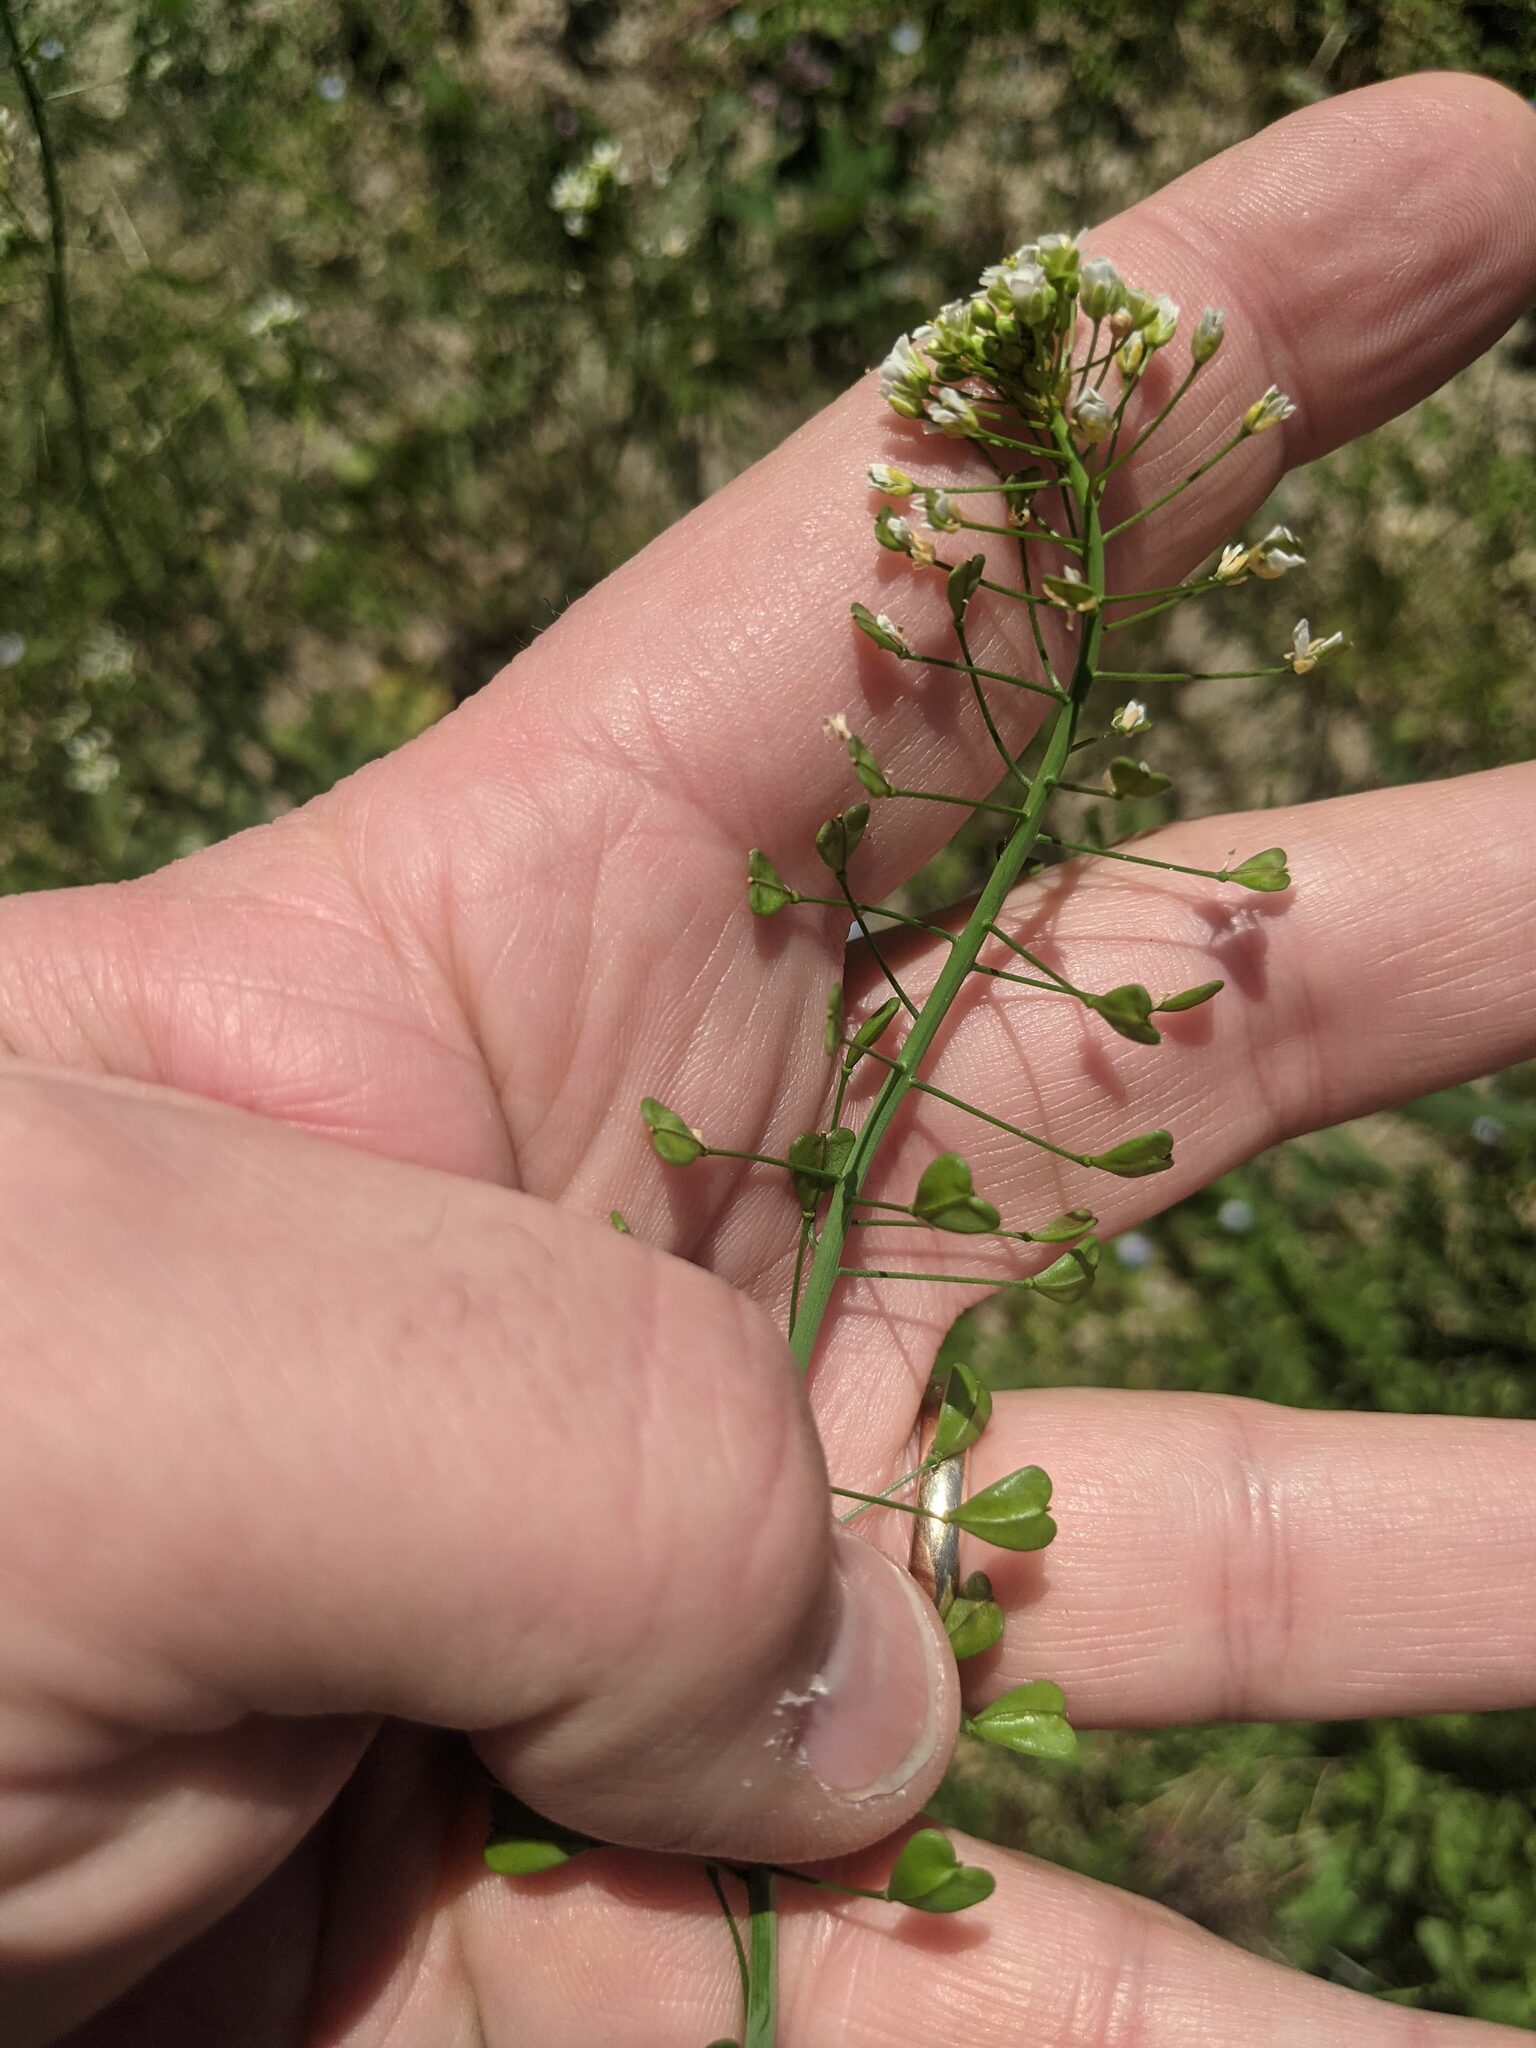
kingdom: Plantae
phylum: Tracheophyta
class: Magnoliopsida
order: Brassicales
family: Brassicaceae
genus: Capsella
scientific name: Capsella bursa-pastoris
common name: Shepherd's purse
